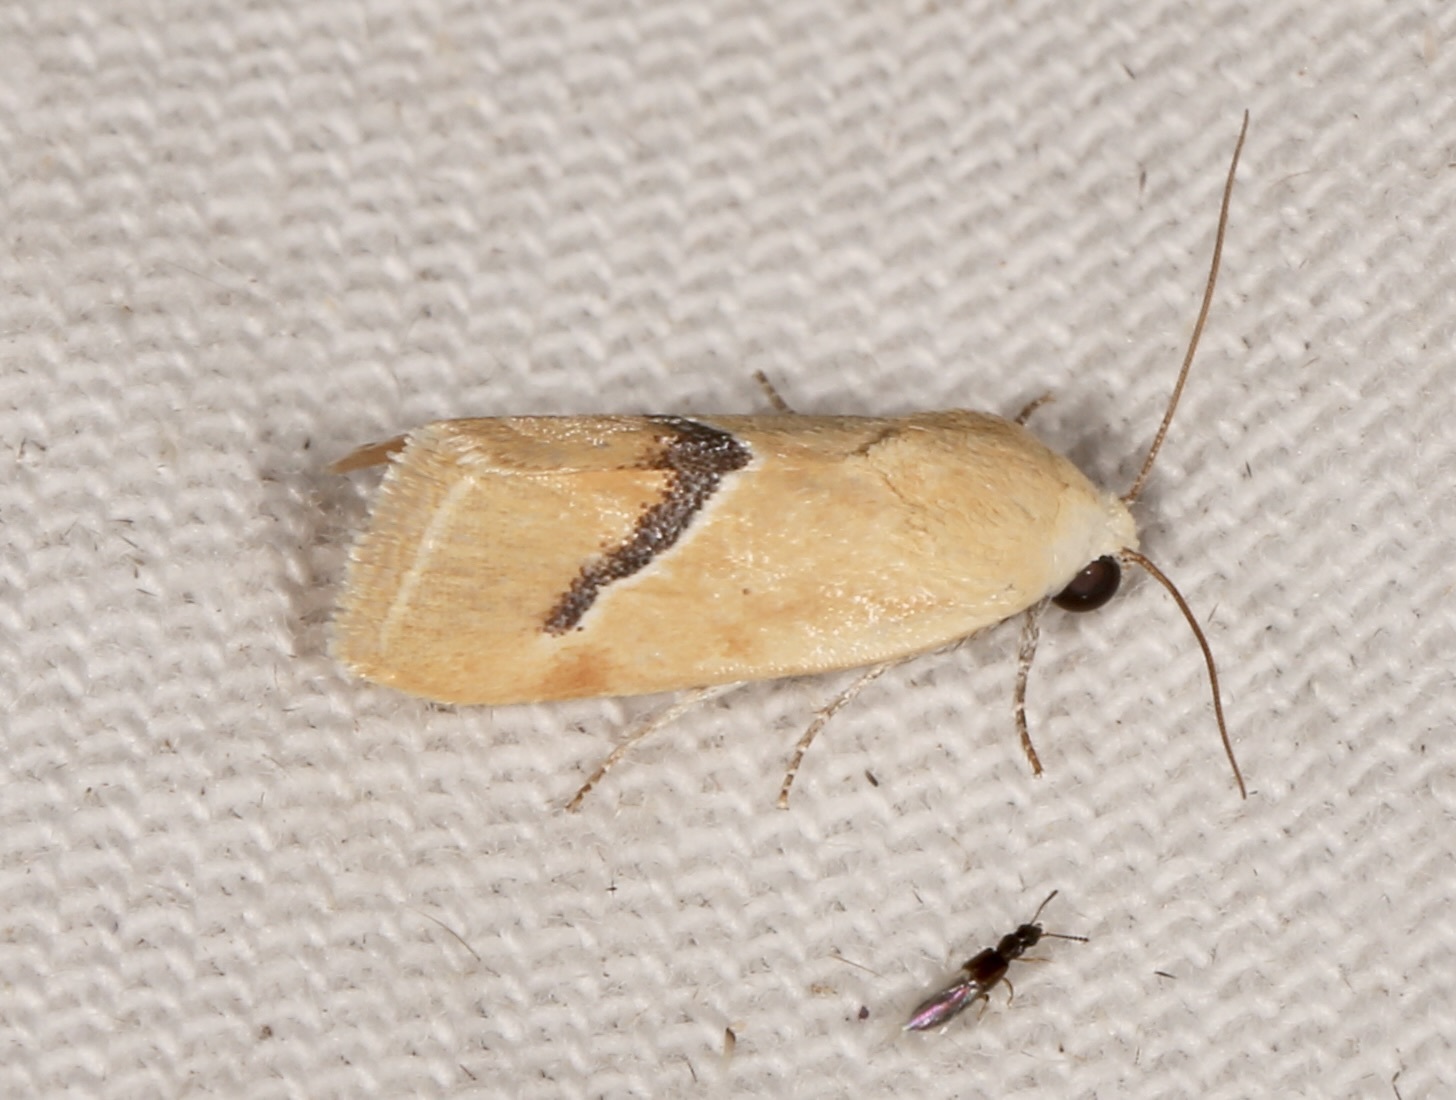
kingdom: Animalia
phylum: Arthropoda
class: Insecta
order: Lepidoptera
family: Noctuidae
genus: Ponometia
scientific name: Ponometia venustula
